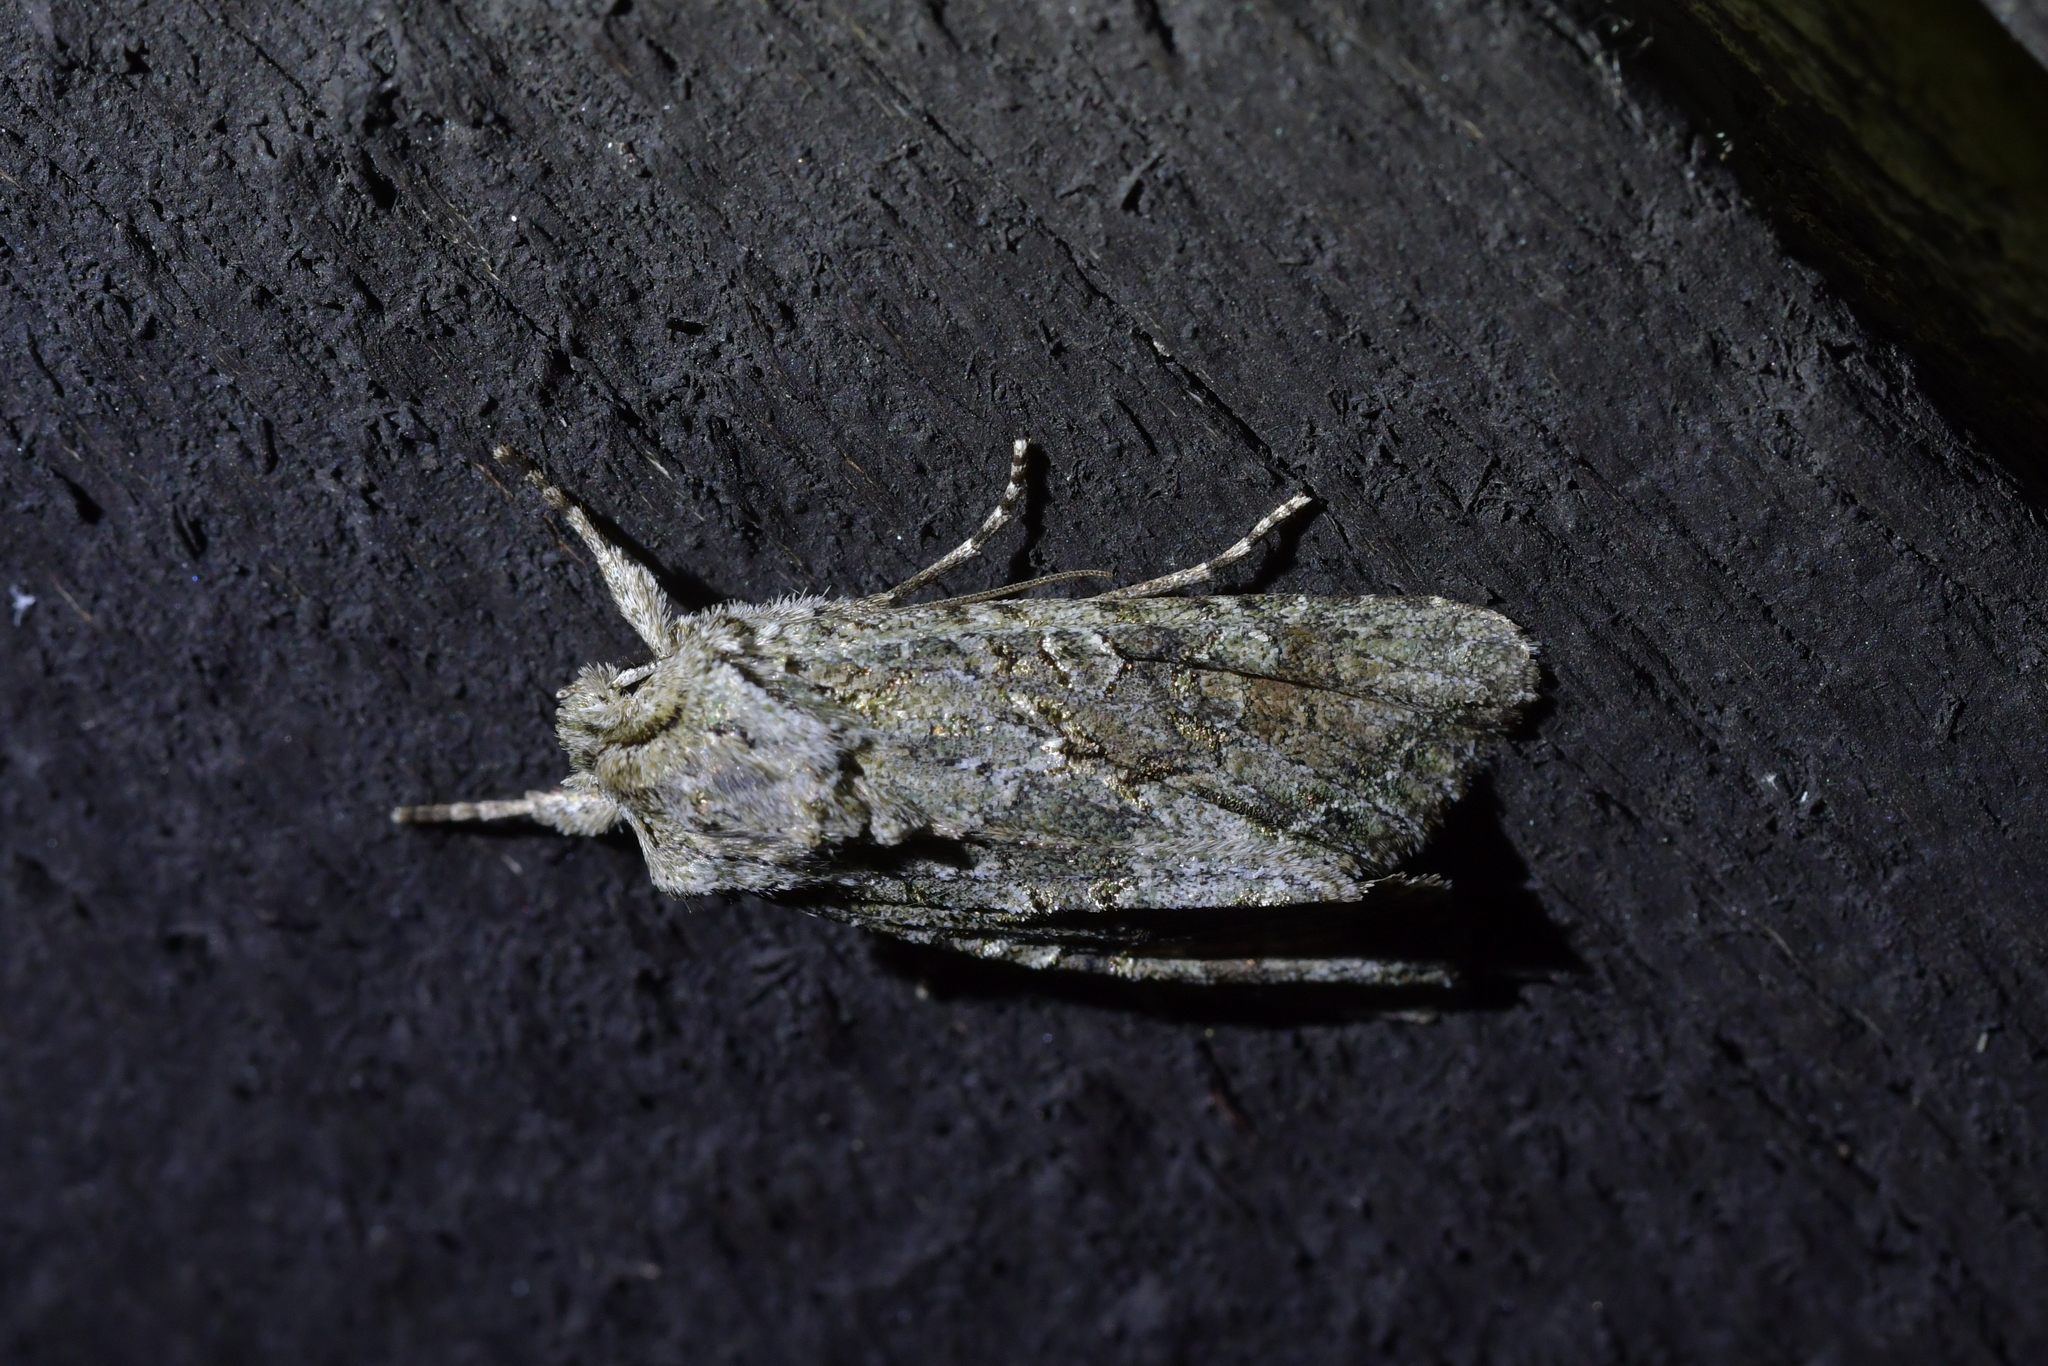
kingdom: Animalia
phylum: Arthropoda
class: Insecta
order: Lepidoptera
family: Noctuidae
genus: Ichneutica
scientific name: Ichneutica mutans
